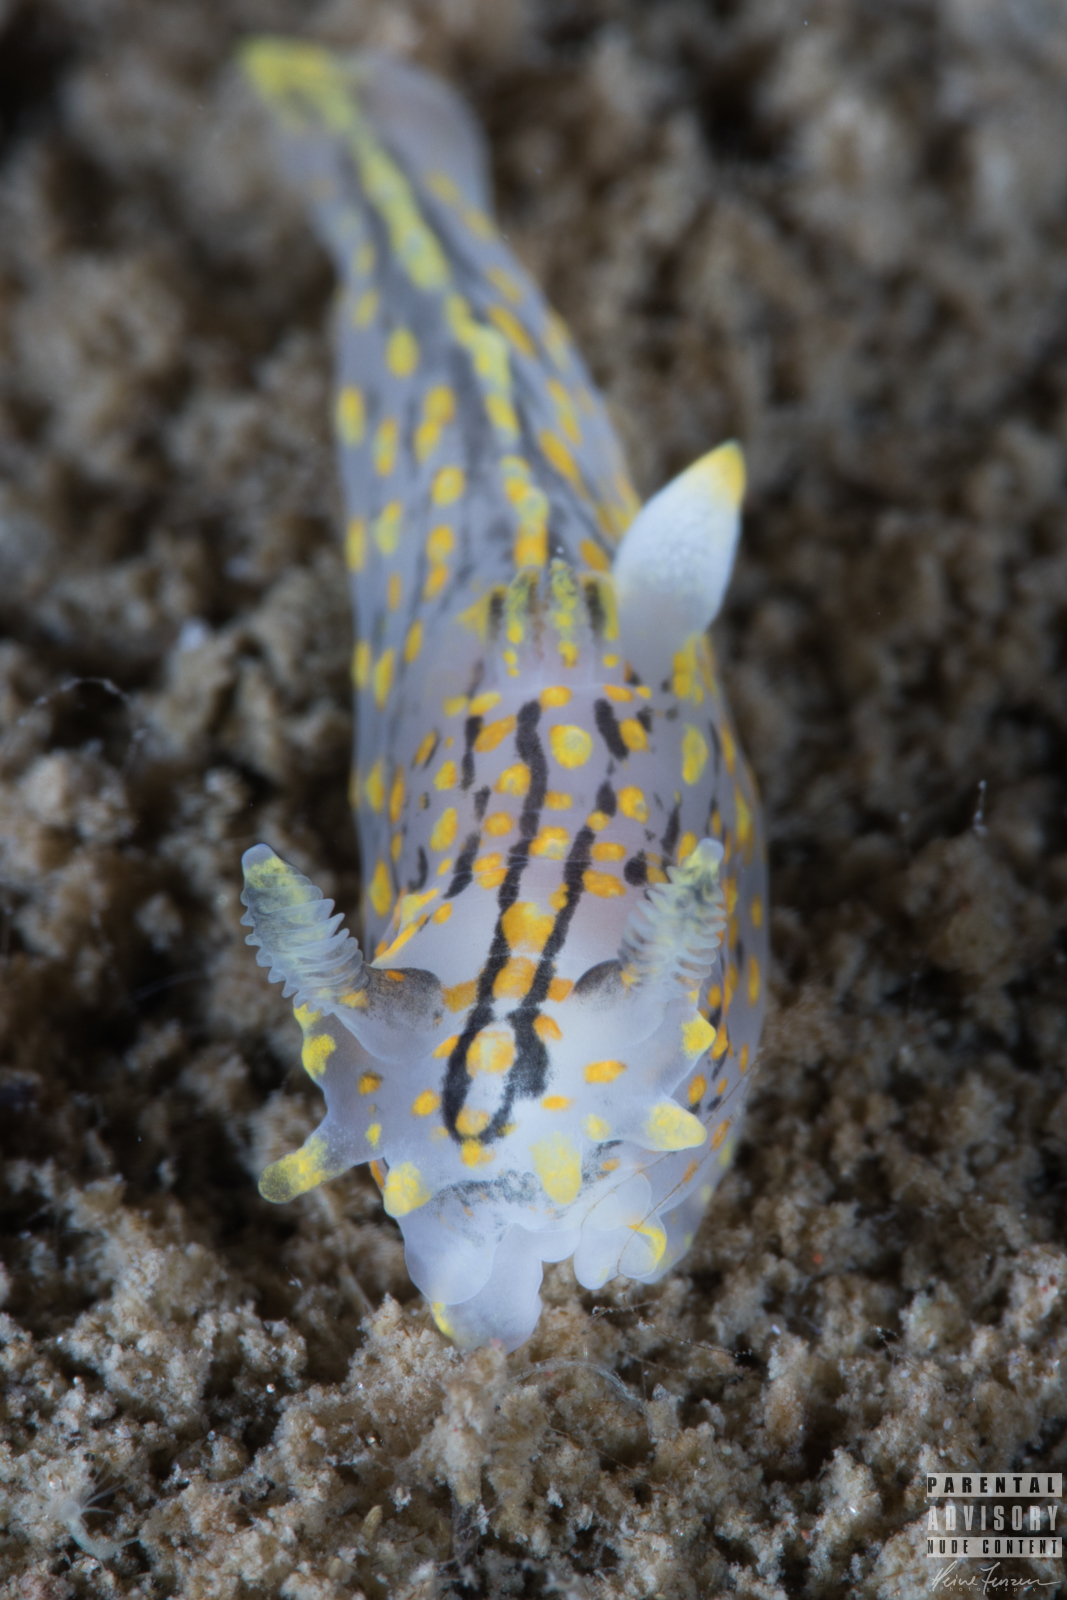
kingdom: Animalia
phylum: Mollusca
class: Gastropoda
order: Nudibranchia
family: Polyceridae
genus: Polycera
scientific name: Polycera quadrilineata
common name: Four-striped polycera
